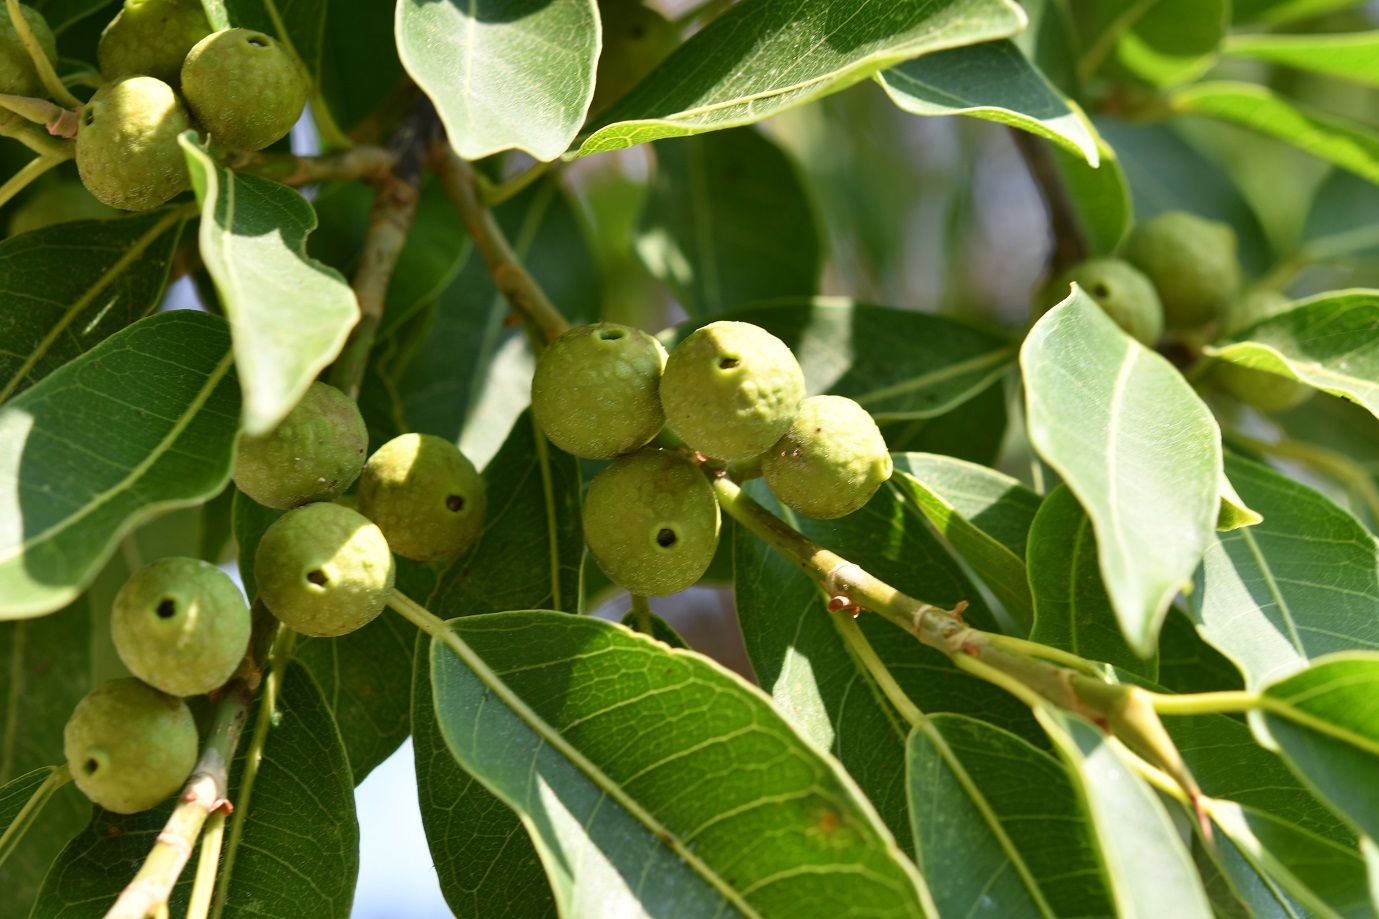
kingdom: Plantae
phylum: Tracheophyta
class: Magnoliopsida
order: Rosales
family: Moraceae
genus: Ficus
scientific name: Ficus pertusa
